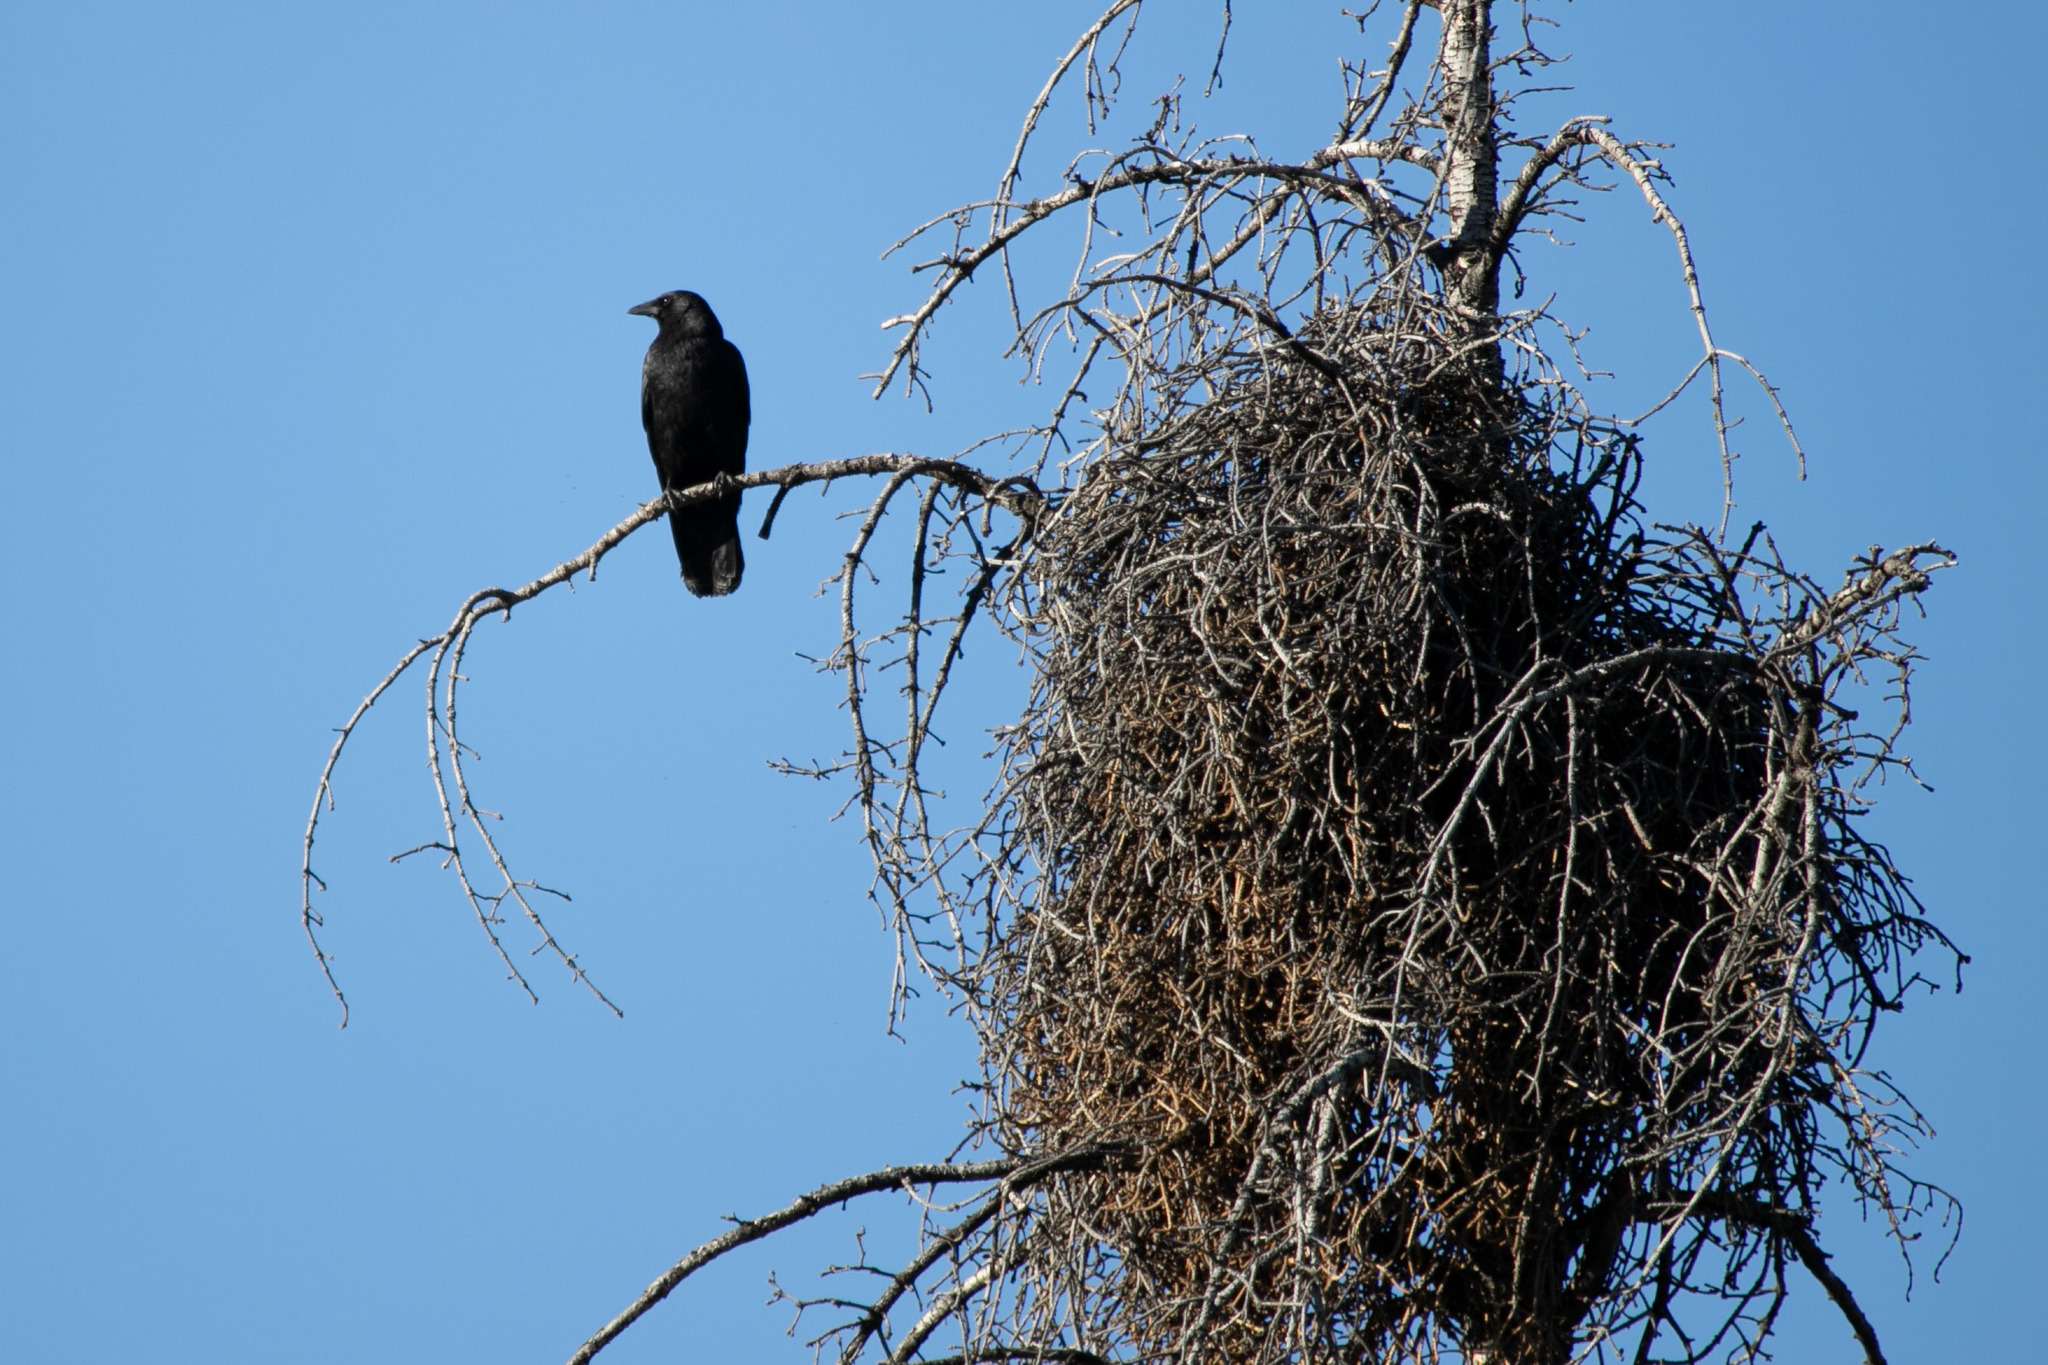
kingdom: Animalia
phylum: Chordata
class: Aves
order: Passeriformes
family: Corvidae
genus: Corvus
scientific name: Corvus brachyrhynchos
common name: American crow
